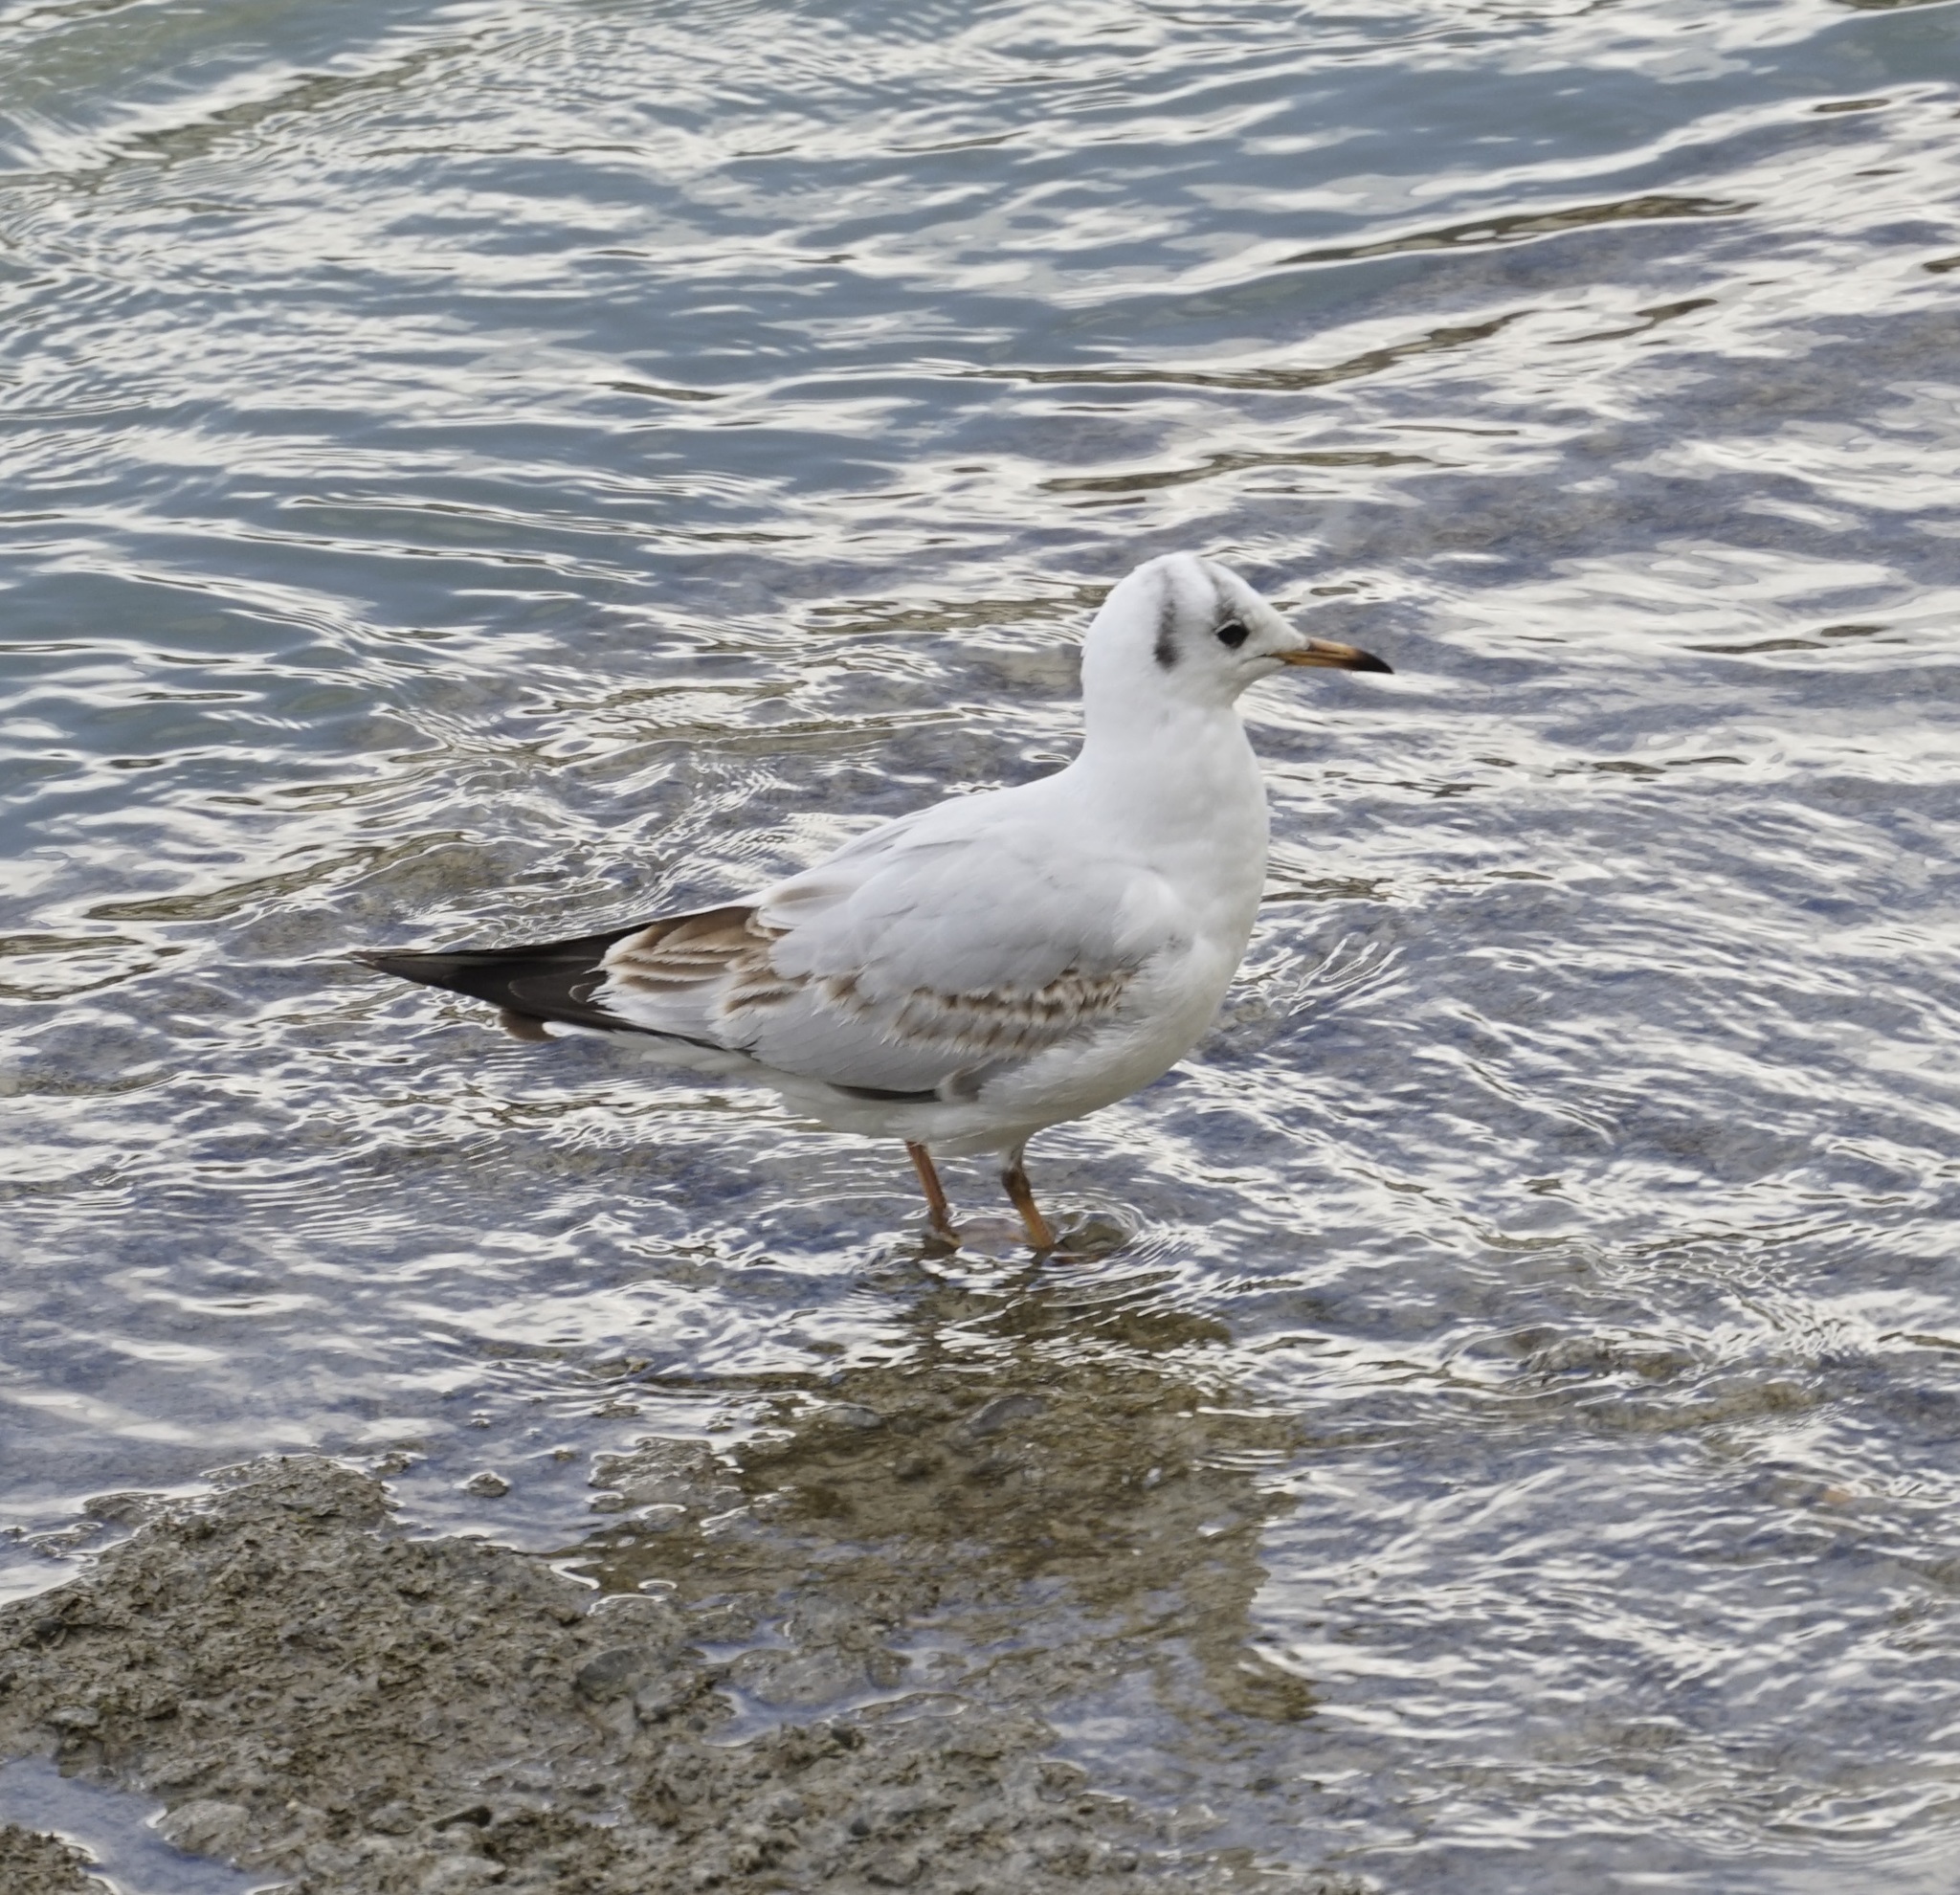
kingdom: Animalia
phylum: Chordata
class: Aves
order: Charadriiformes
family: Laridae
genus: Chroicocephalus
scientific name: Chroicocephalus ridibundus
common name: Black-headed gull
